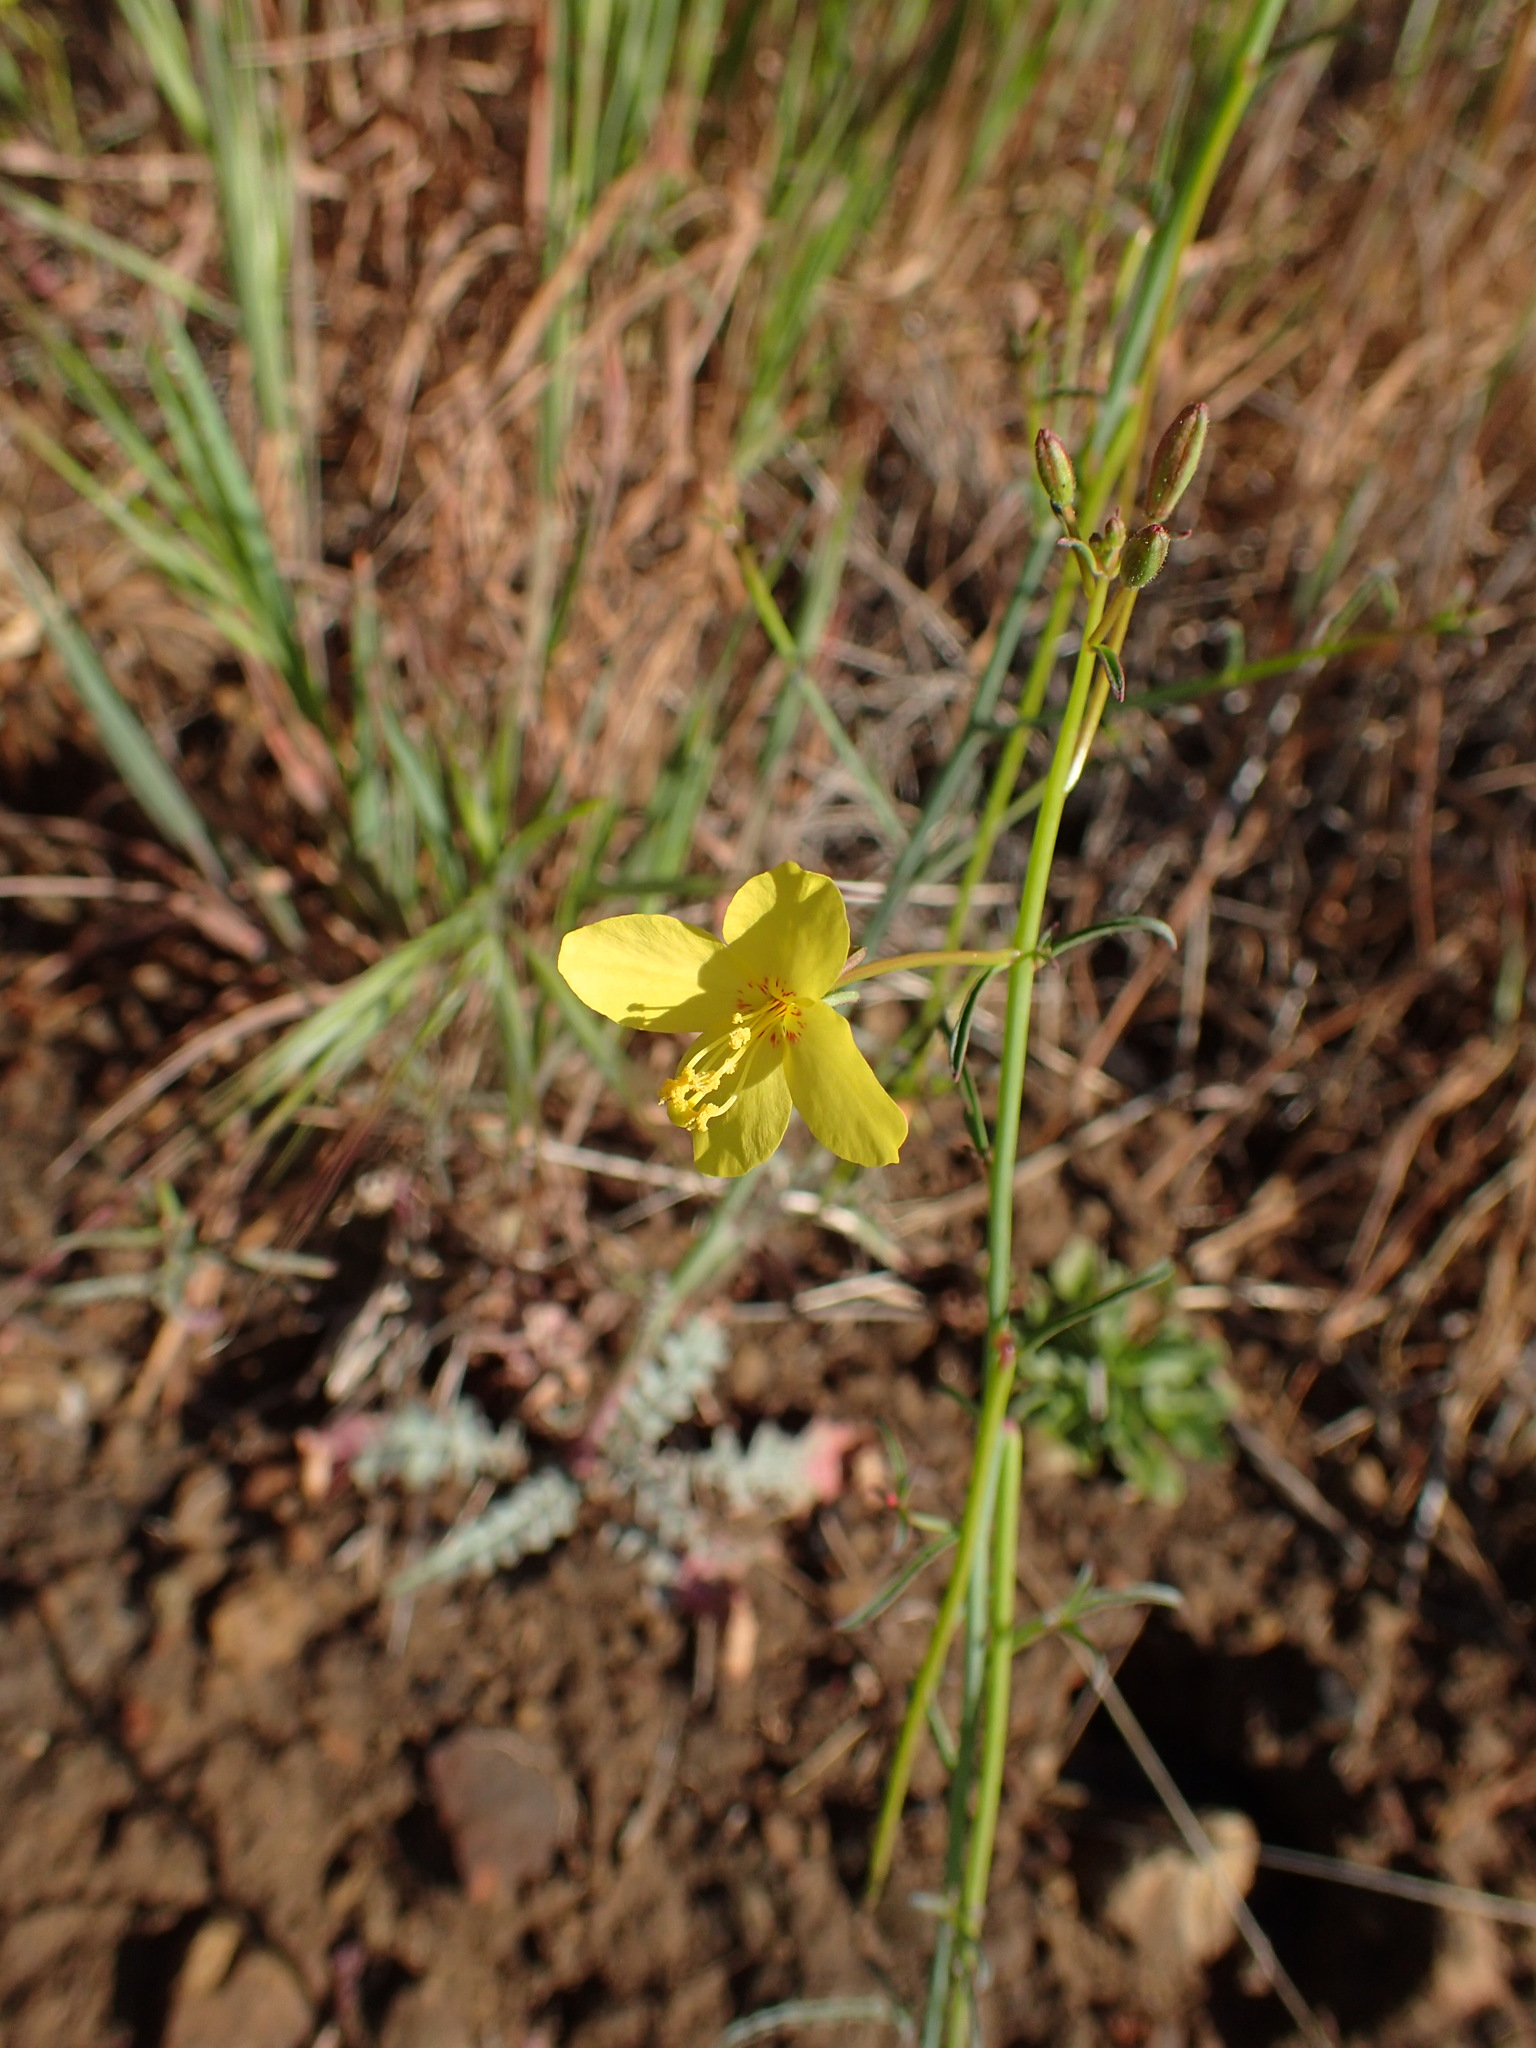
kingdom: Plantae
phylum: Tracheophyta
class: Magnoliopsida
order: Myrtales
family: Onagraceae
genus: Eulobus
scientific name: Eulobus californicus
